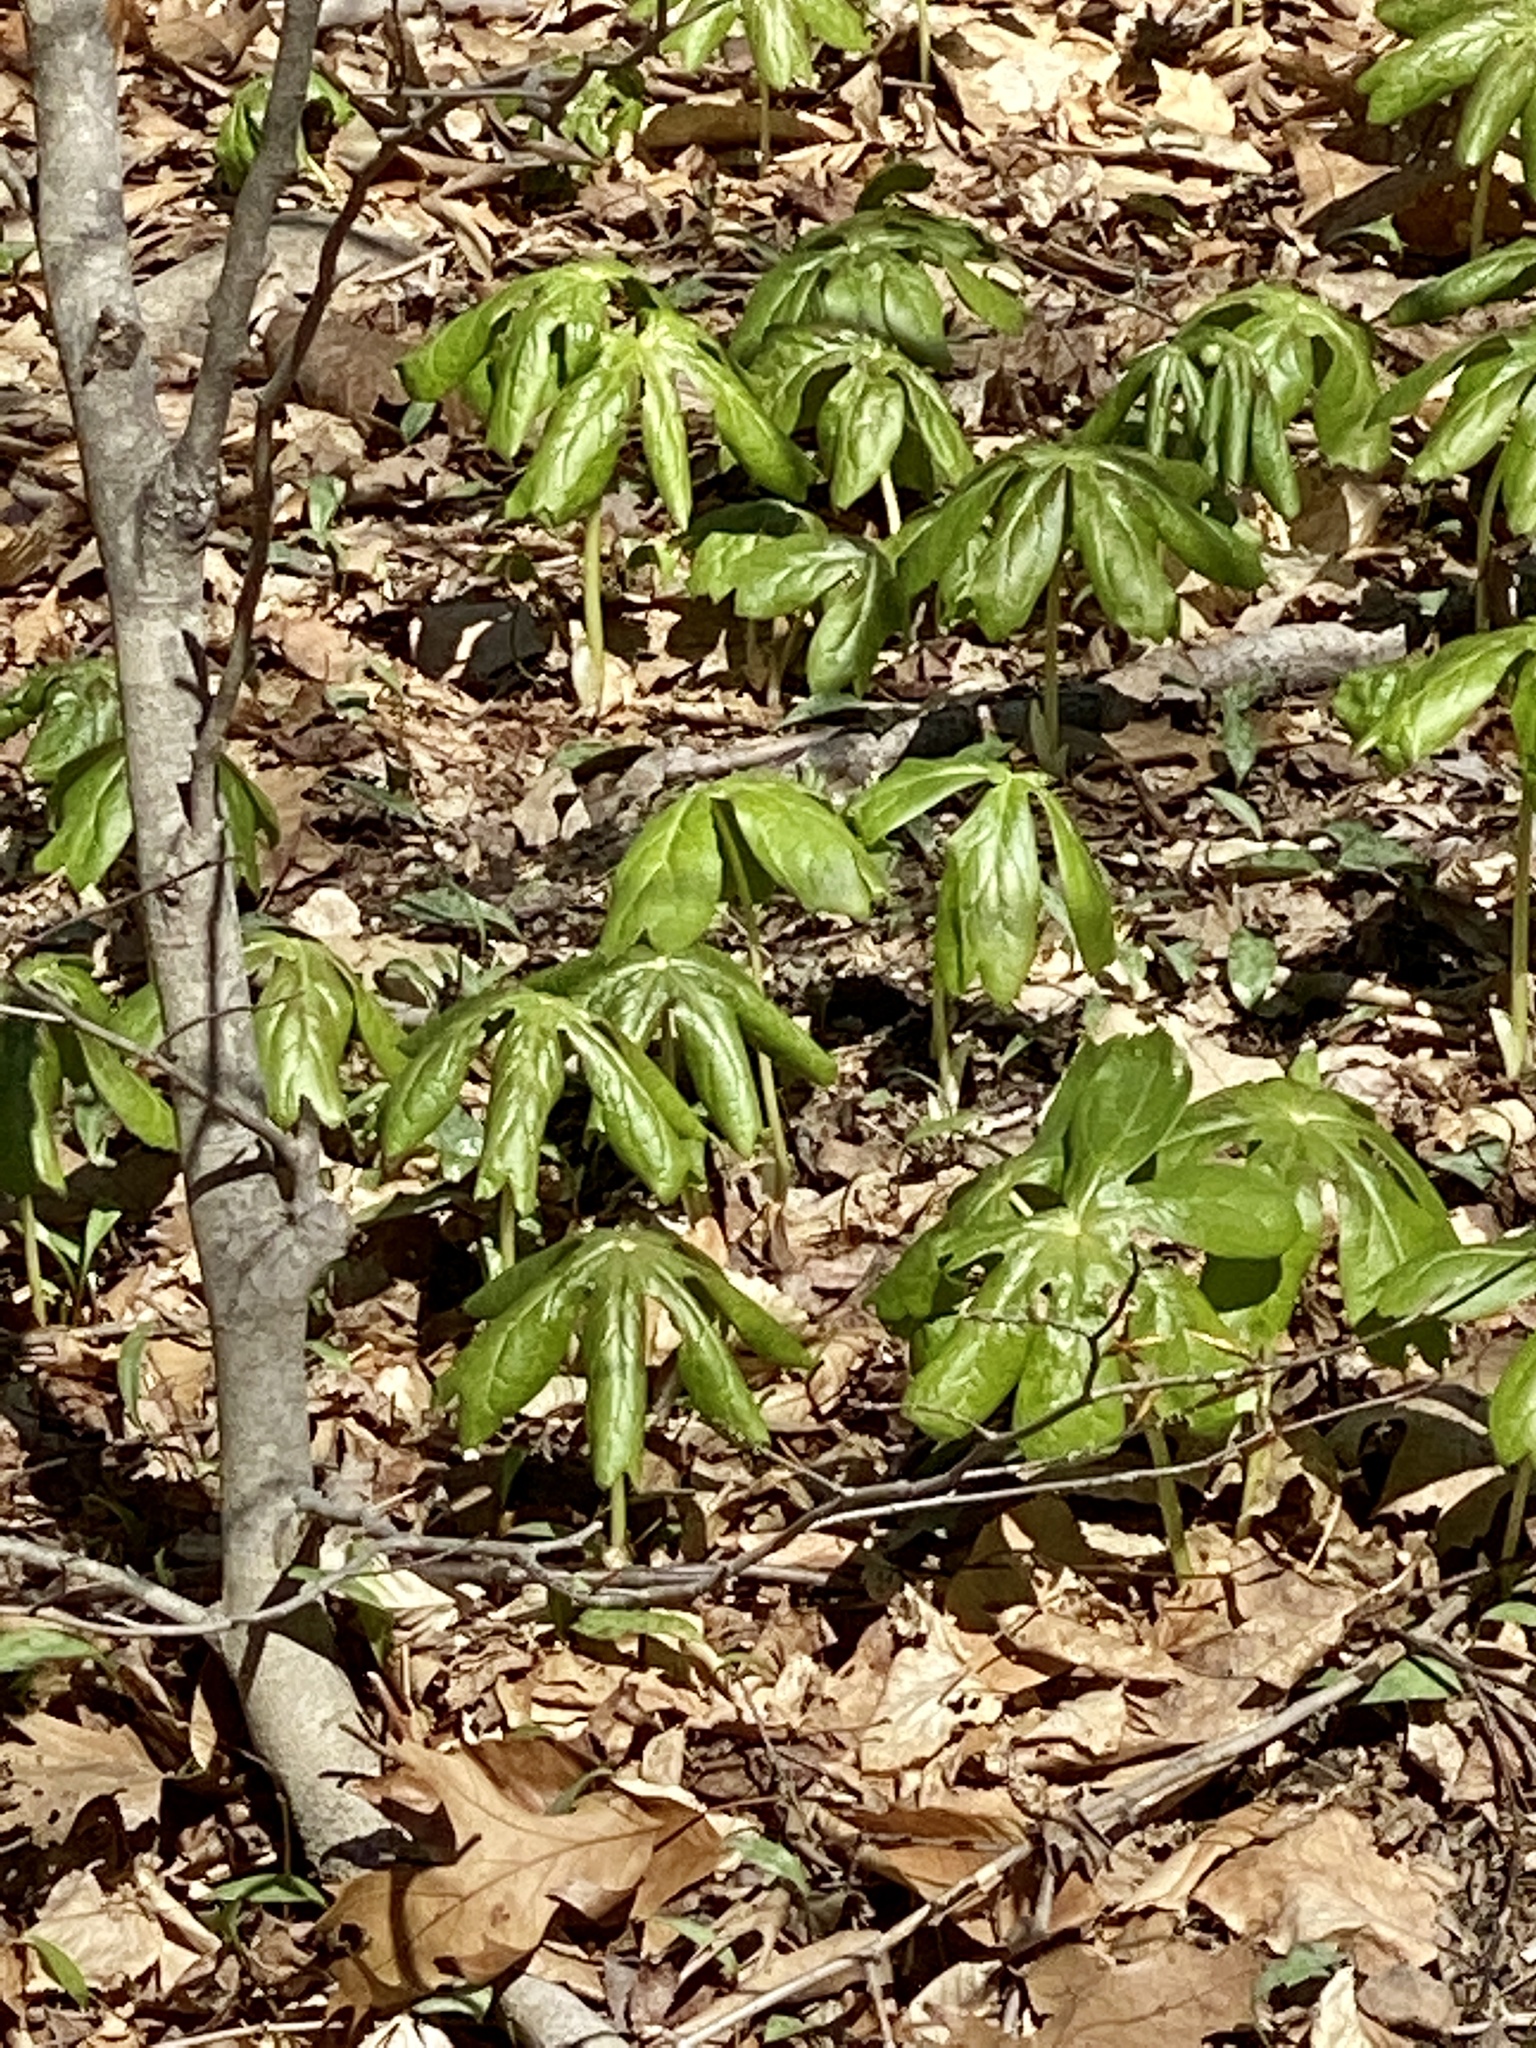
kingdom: Plantae
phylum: Tracheophyta
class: Magnoliopsida
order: Ranunculales
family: Berberidaceae
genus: Podophyllum
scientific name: Podophyllum peltatum
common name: Wild mandrake
